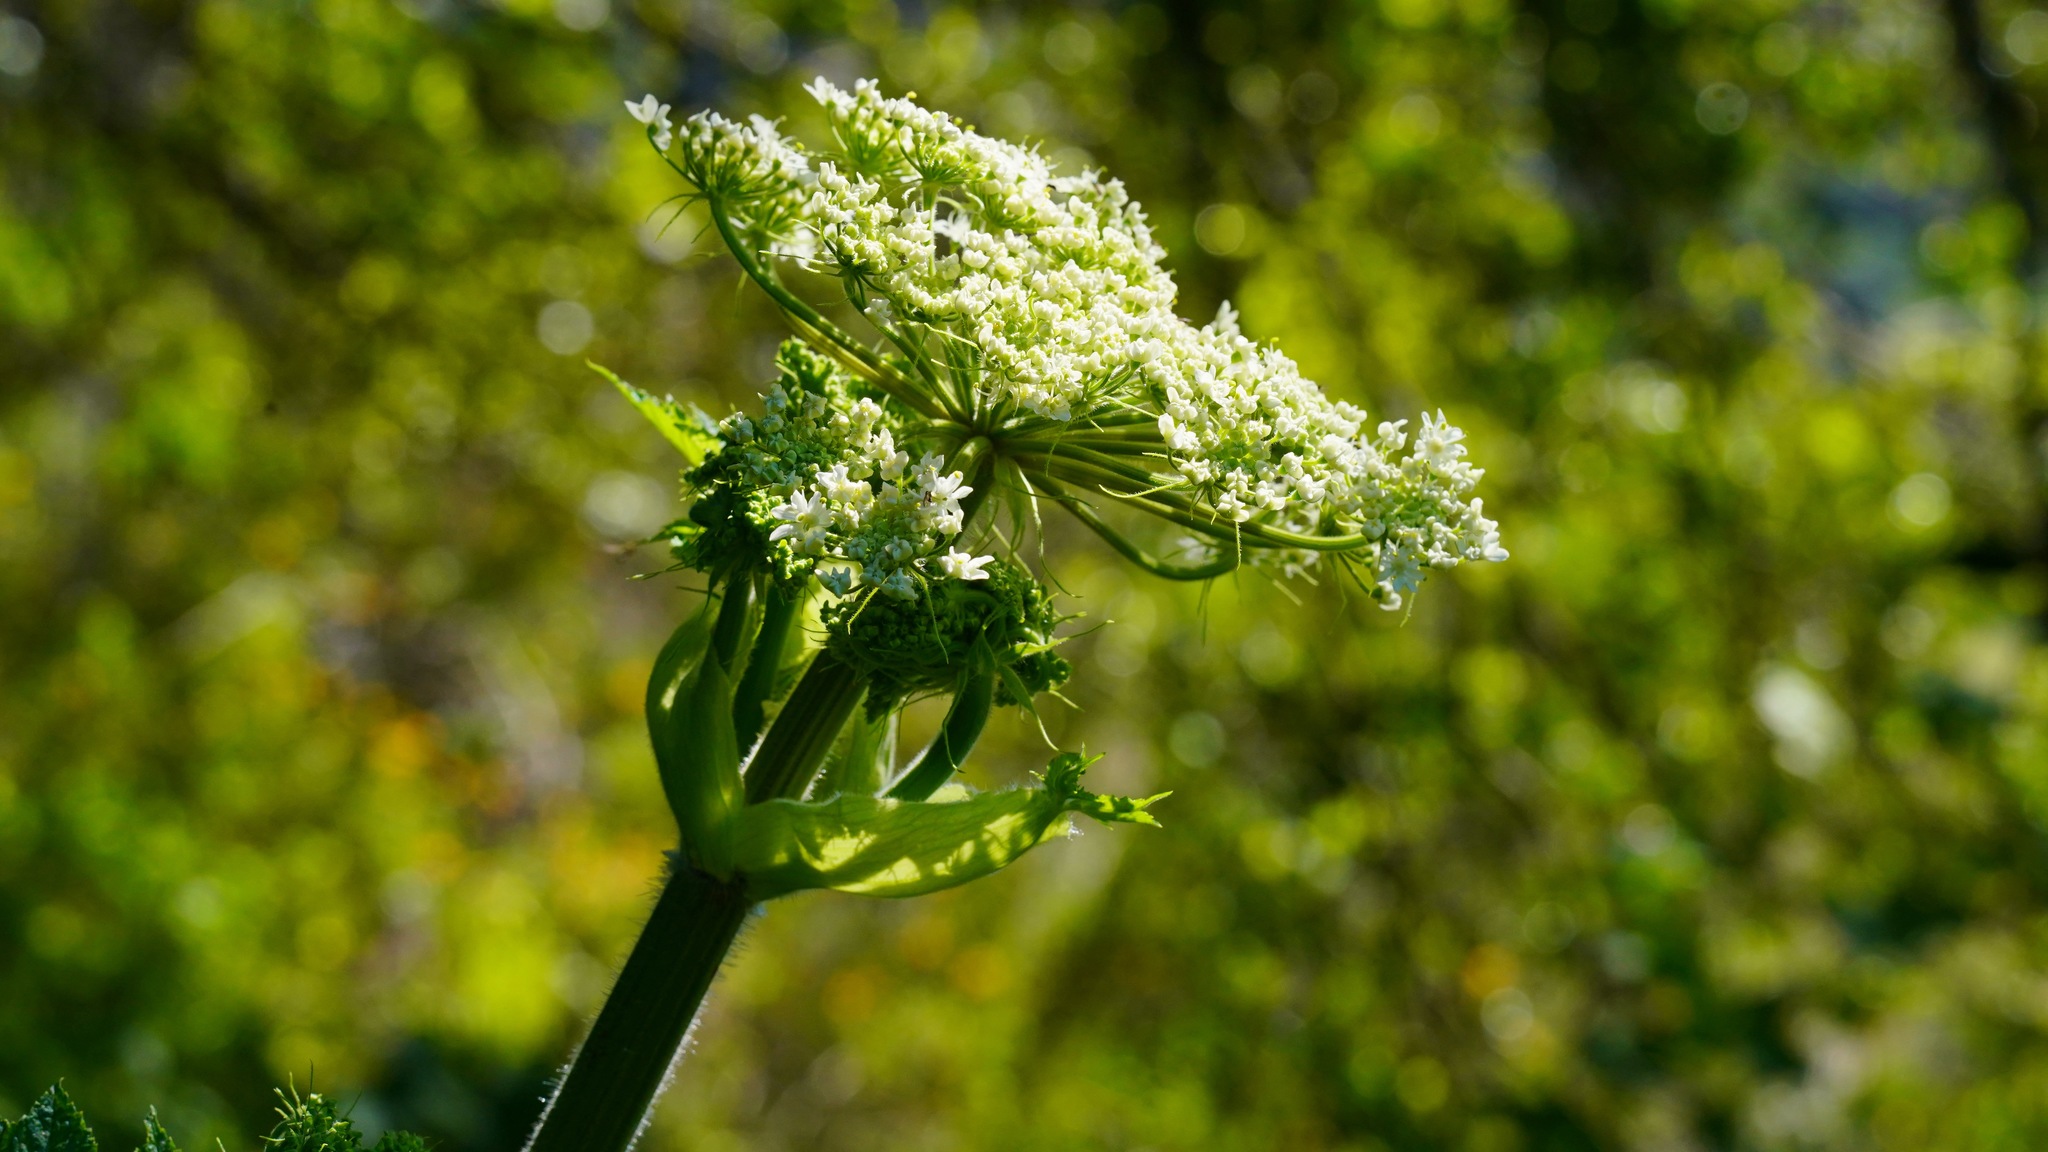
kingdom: Plantae
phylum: Tracheophyta
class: Magnoliopsida
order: Apiales
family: Apiaceae
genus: Heracleum
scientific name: Heracleum maximum
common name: American cow parsnip
